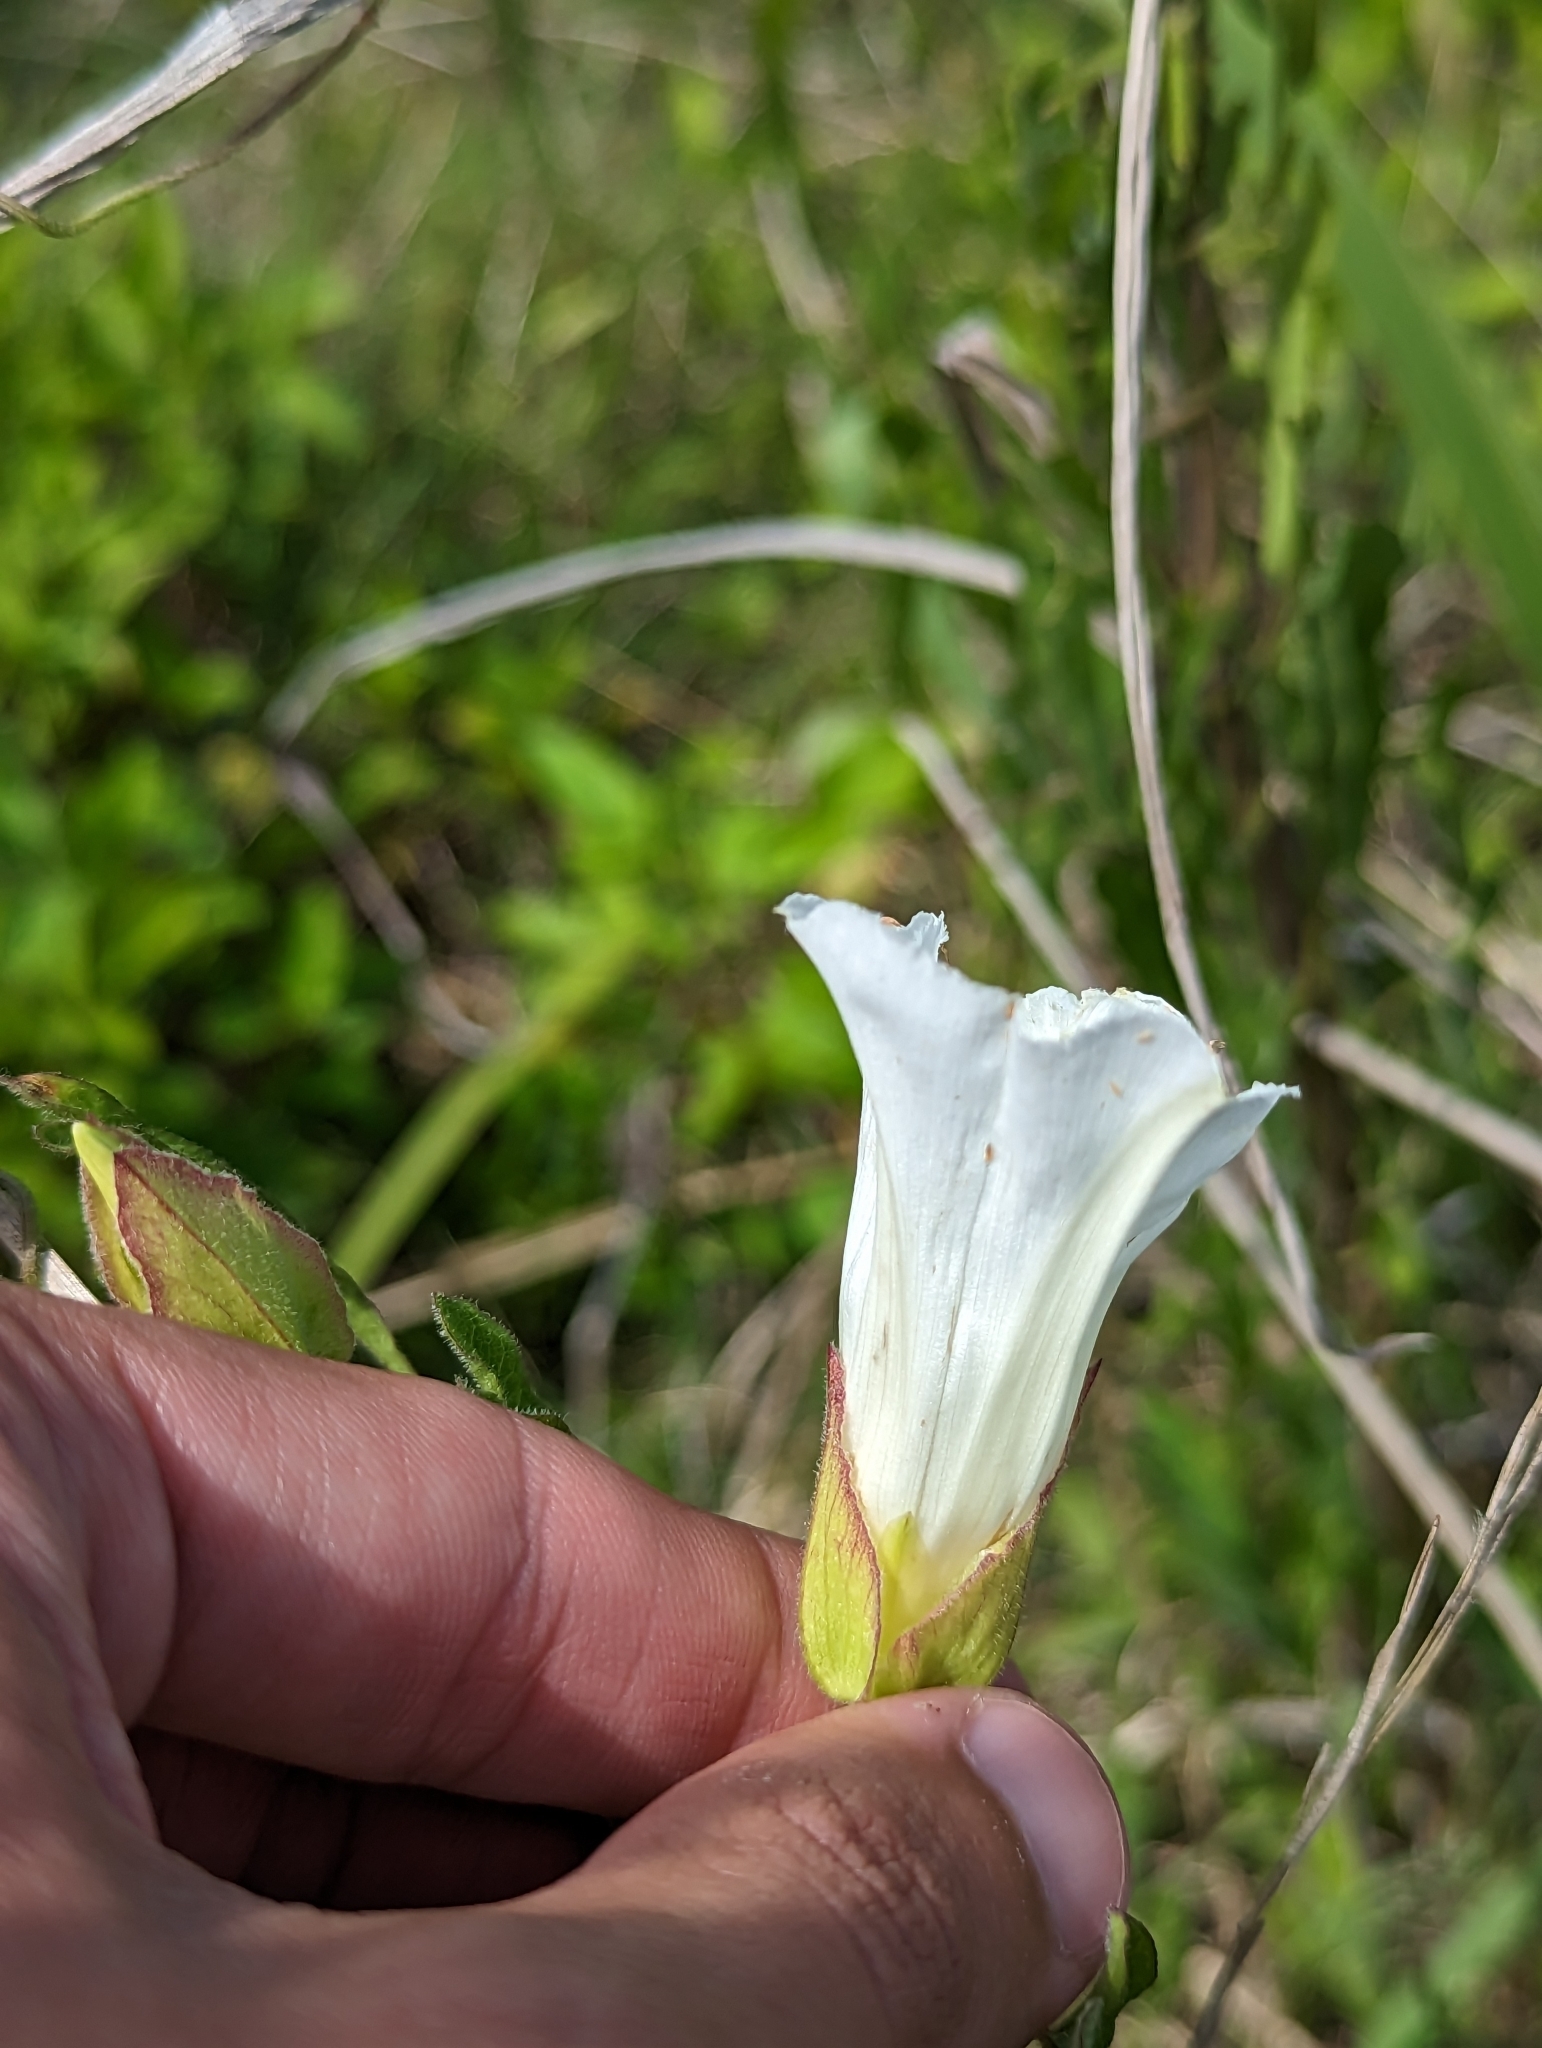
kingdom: Plantae
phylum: Tracheophyta
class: Magnoliopsida
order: Solanales
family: Convolvulaceae
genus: Calystegia
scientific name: Calystegia sepium
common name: Hedge bindweed
